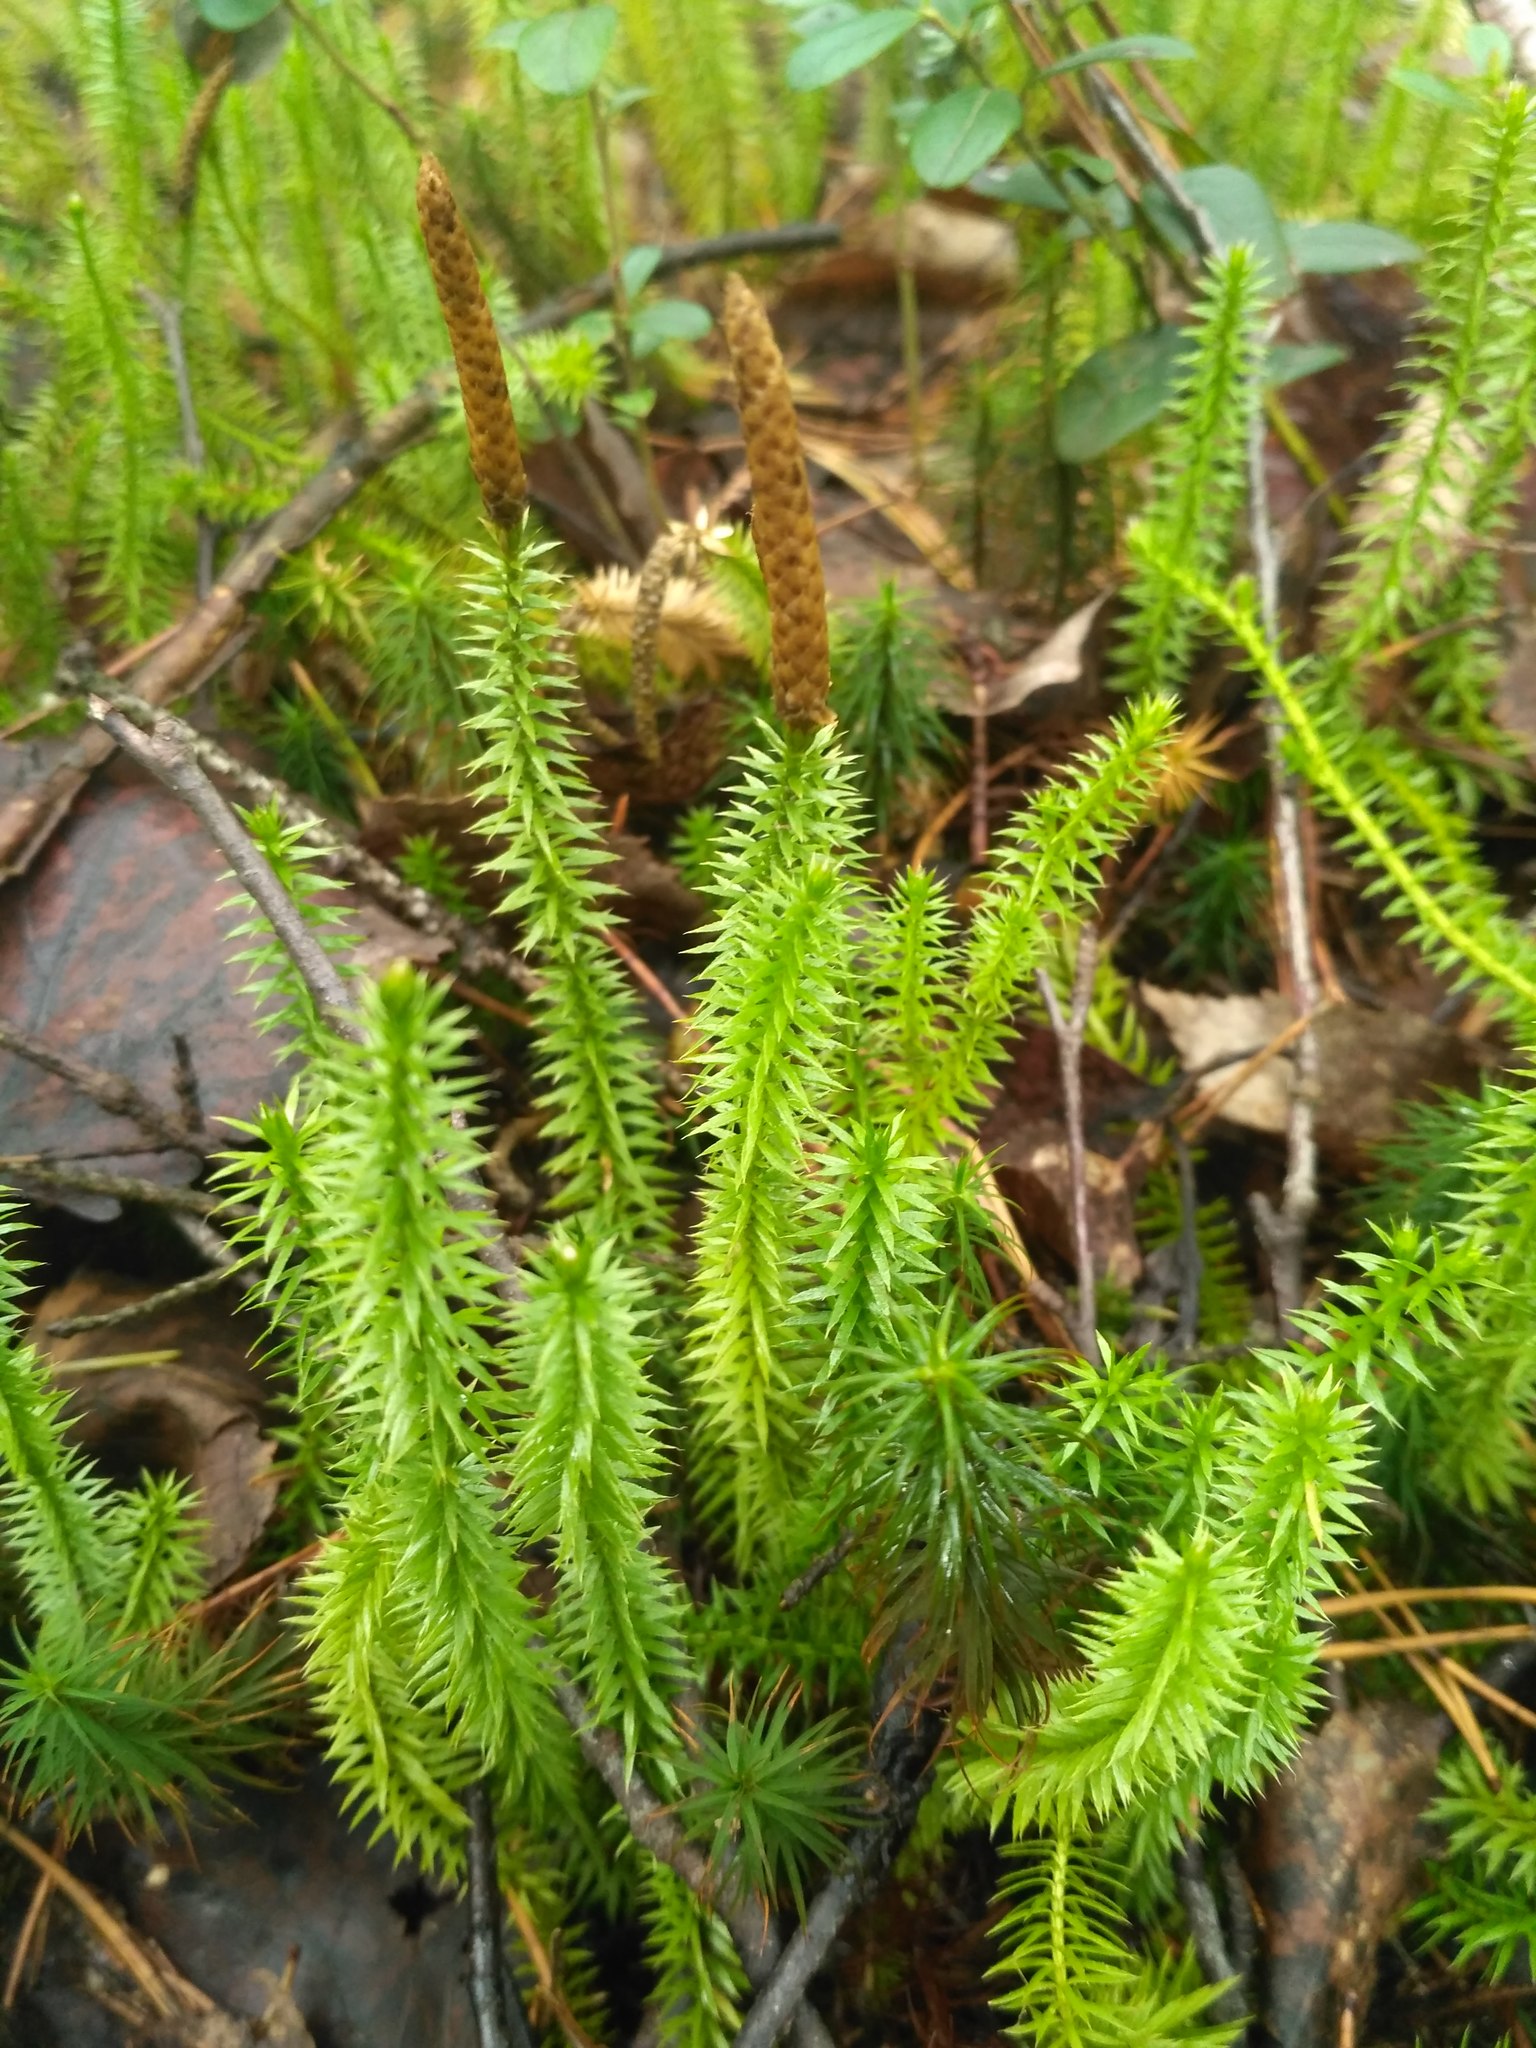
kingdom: Plantae
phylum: Tracheophyta
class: Lycopodiopsida
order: Lycopodiales
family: Lycopodiaceae
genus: Spinulum
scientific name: Spinulum annotinum
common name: Interrupted club-moss
